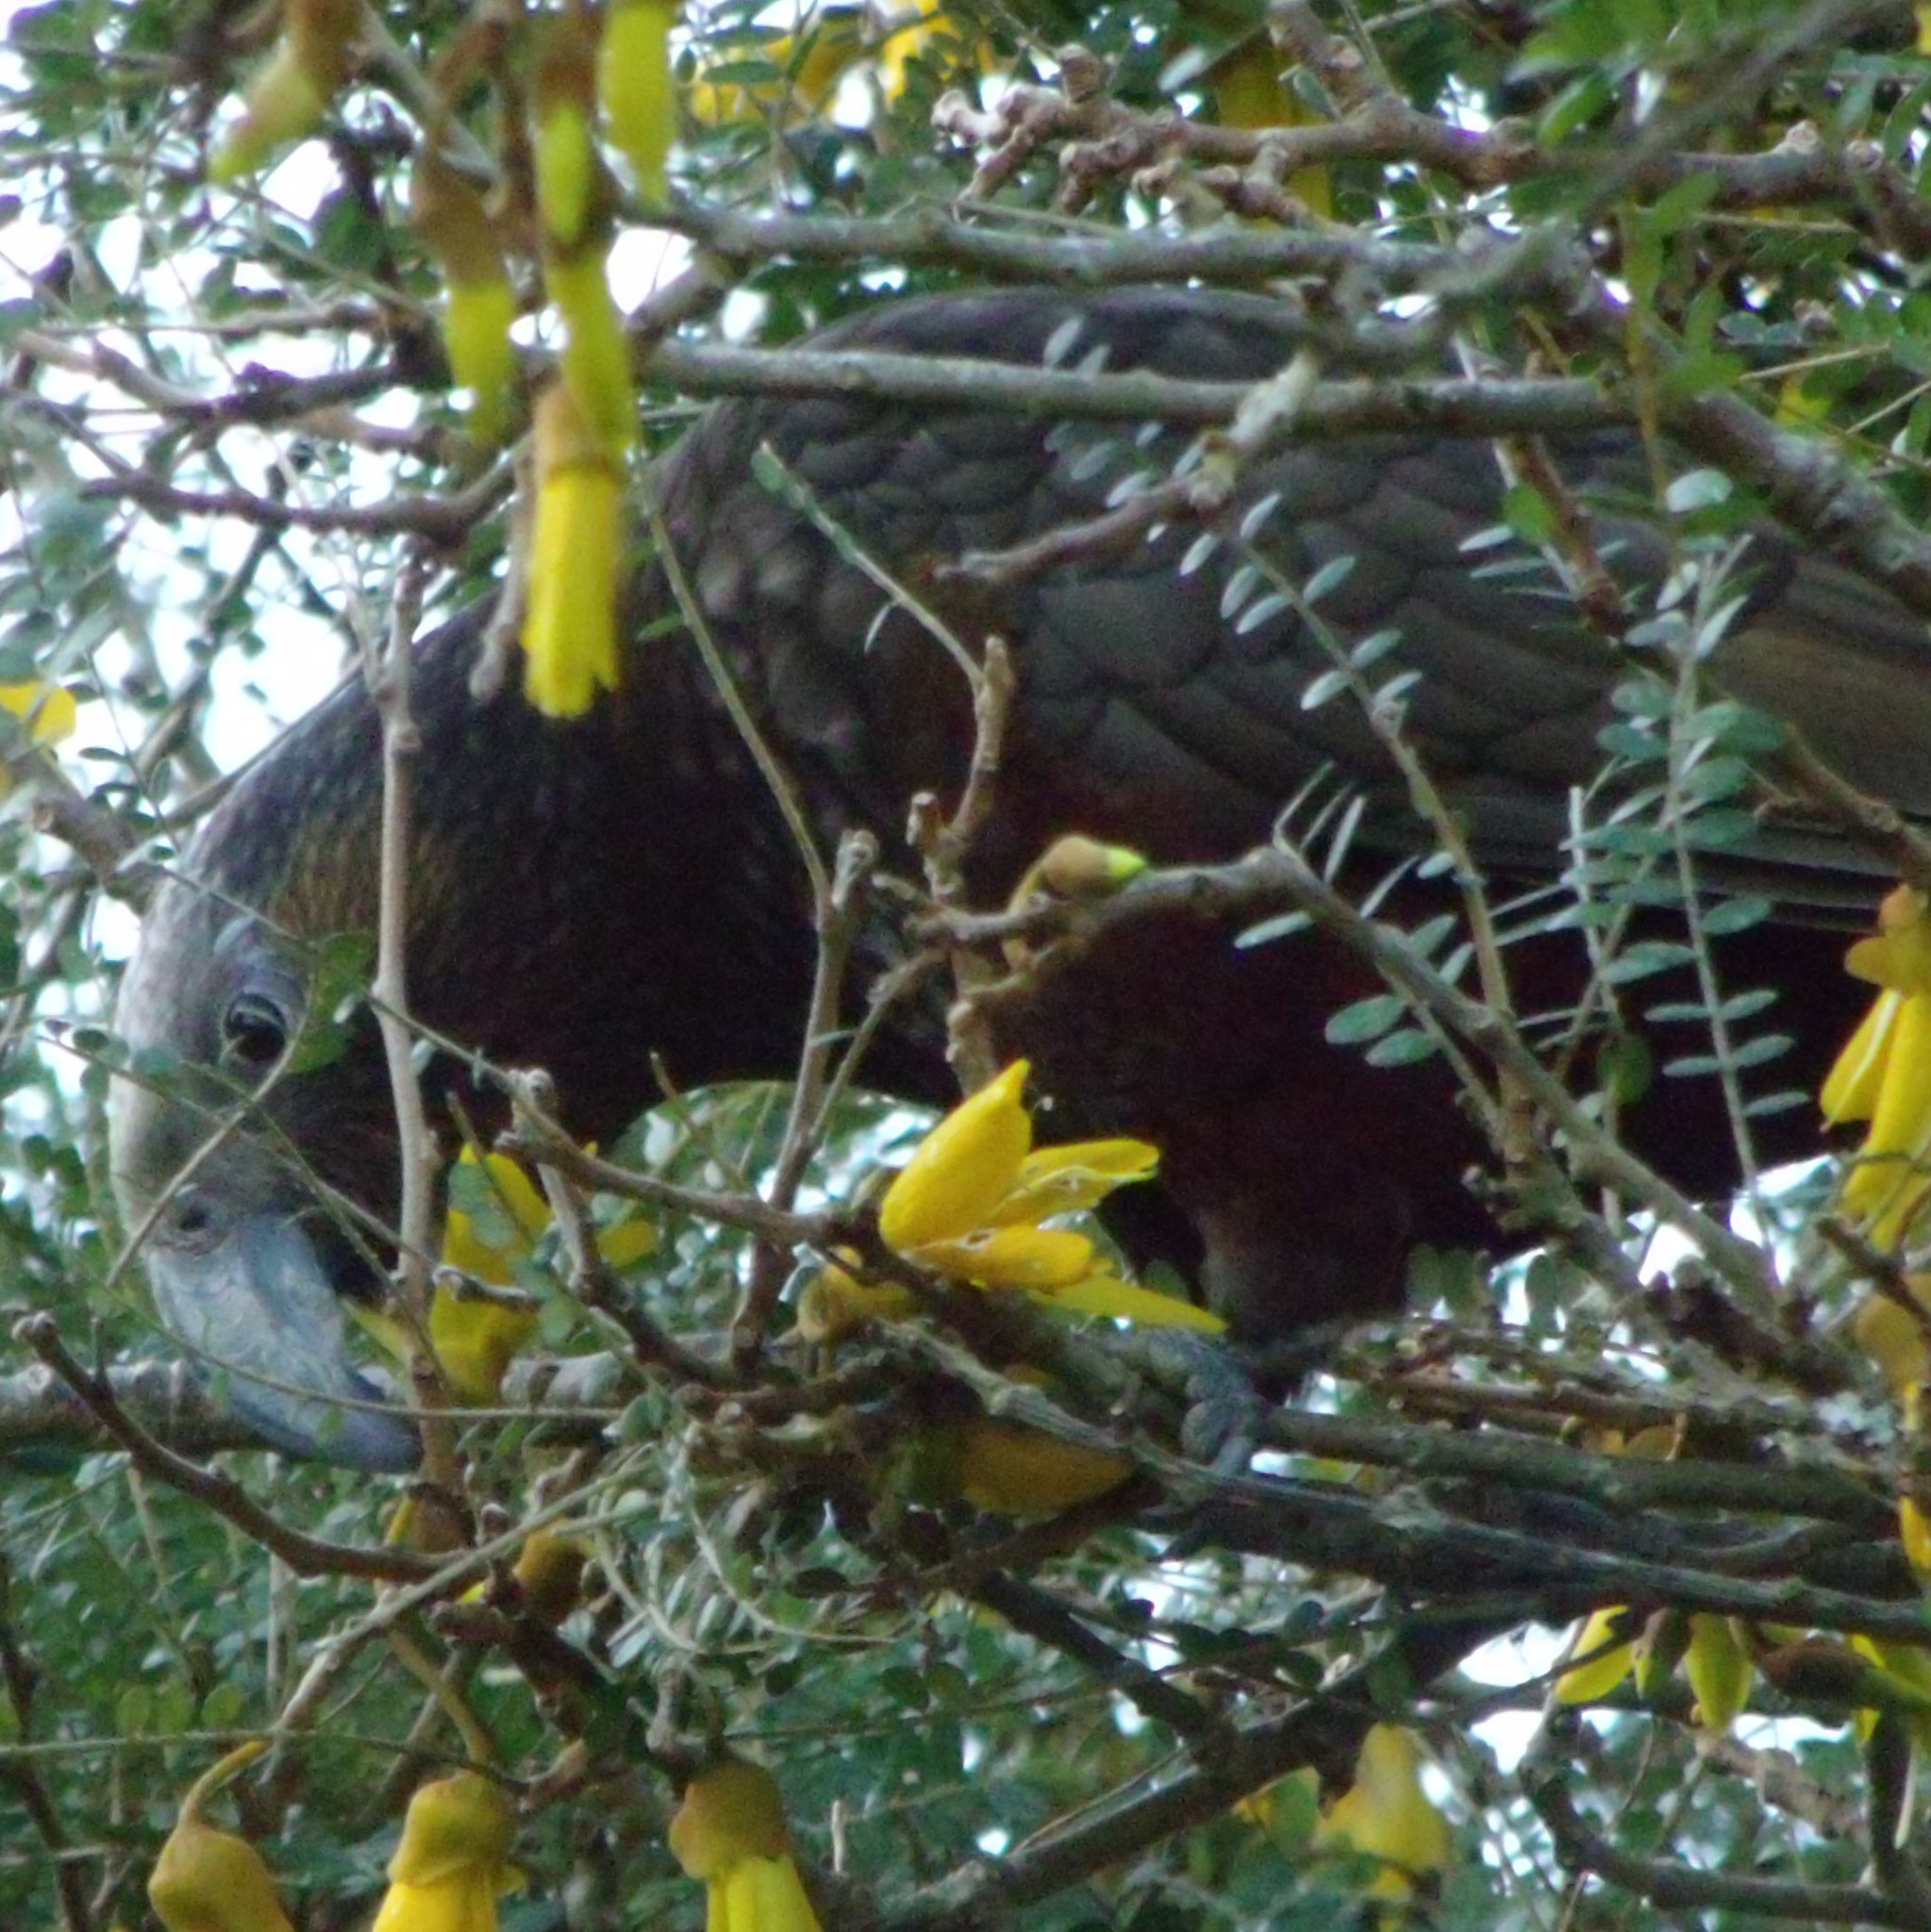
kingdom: Animalia
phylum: Chordata
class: Aves
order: Psittaciformes
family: Psittacidae
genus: Nestor
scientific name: Nestor meridionalis
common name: New zealand kaka
